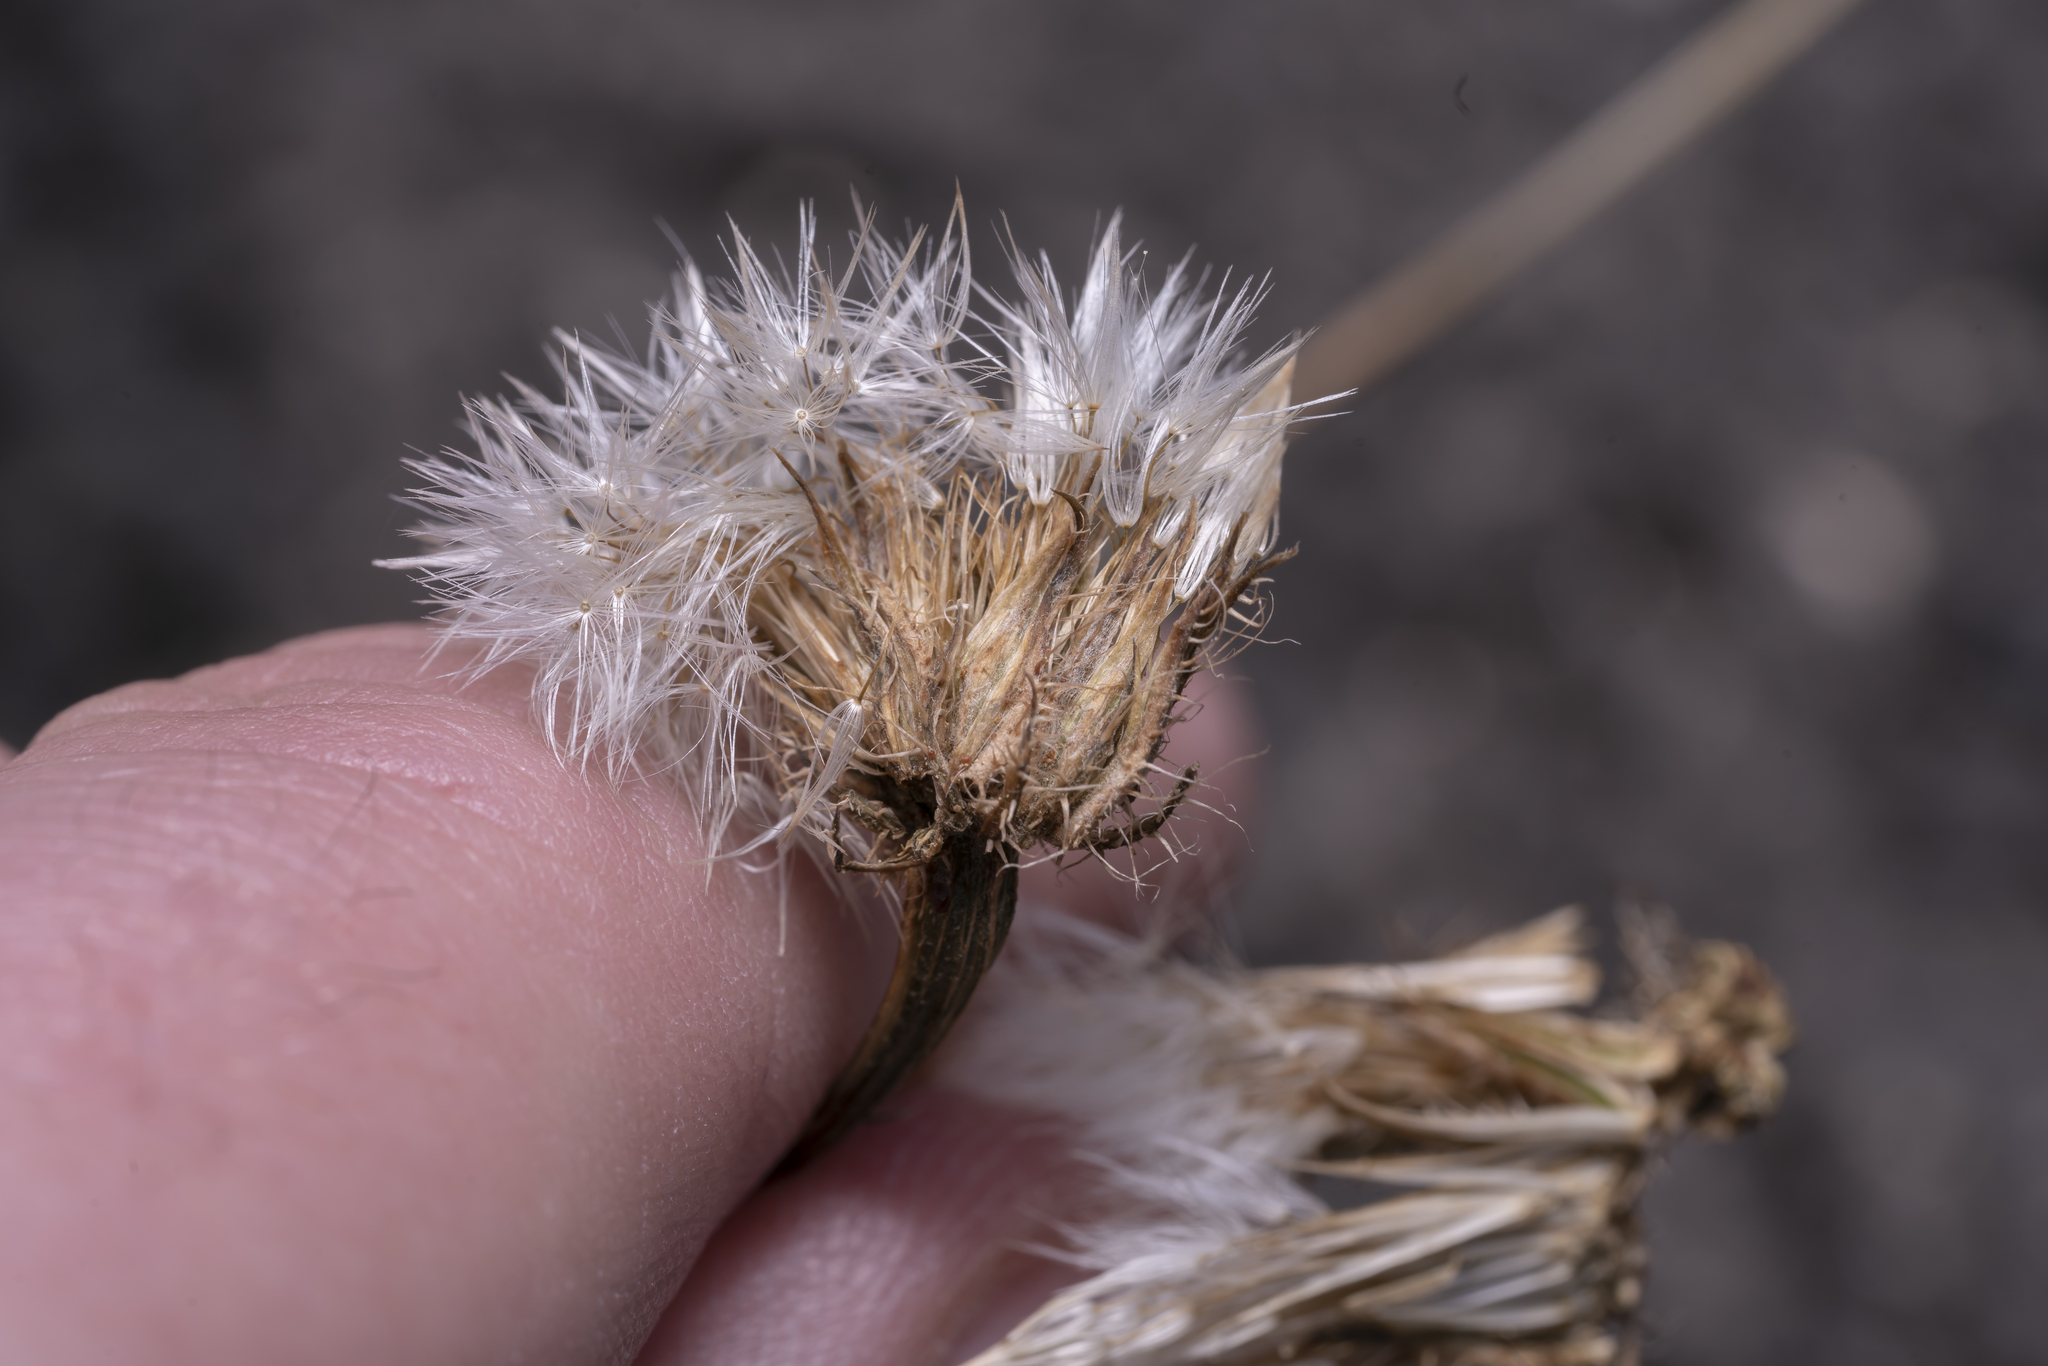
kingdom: Plantae
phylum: Tracheophyta
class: Magnoliopsida
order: Asterales
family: Asteraceae
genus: Crepis
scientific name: Crepis commutata
